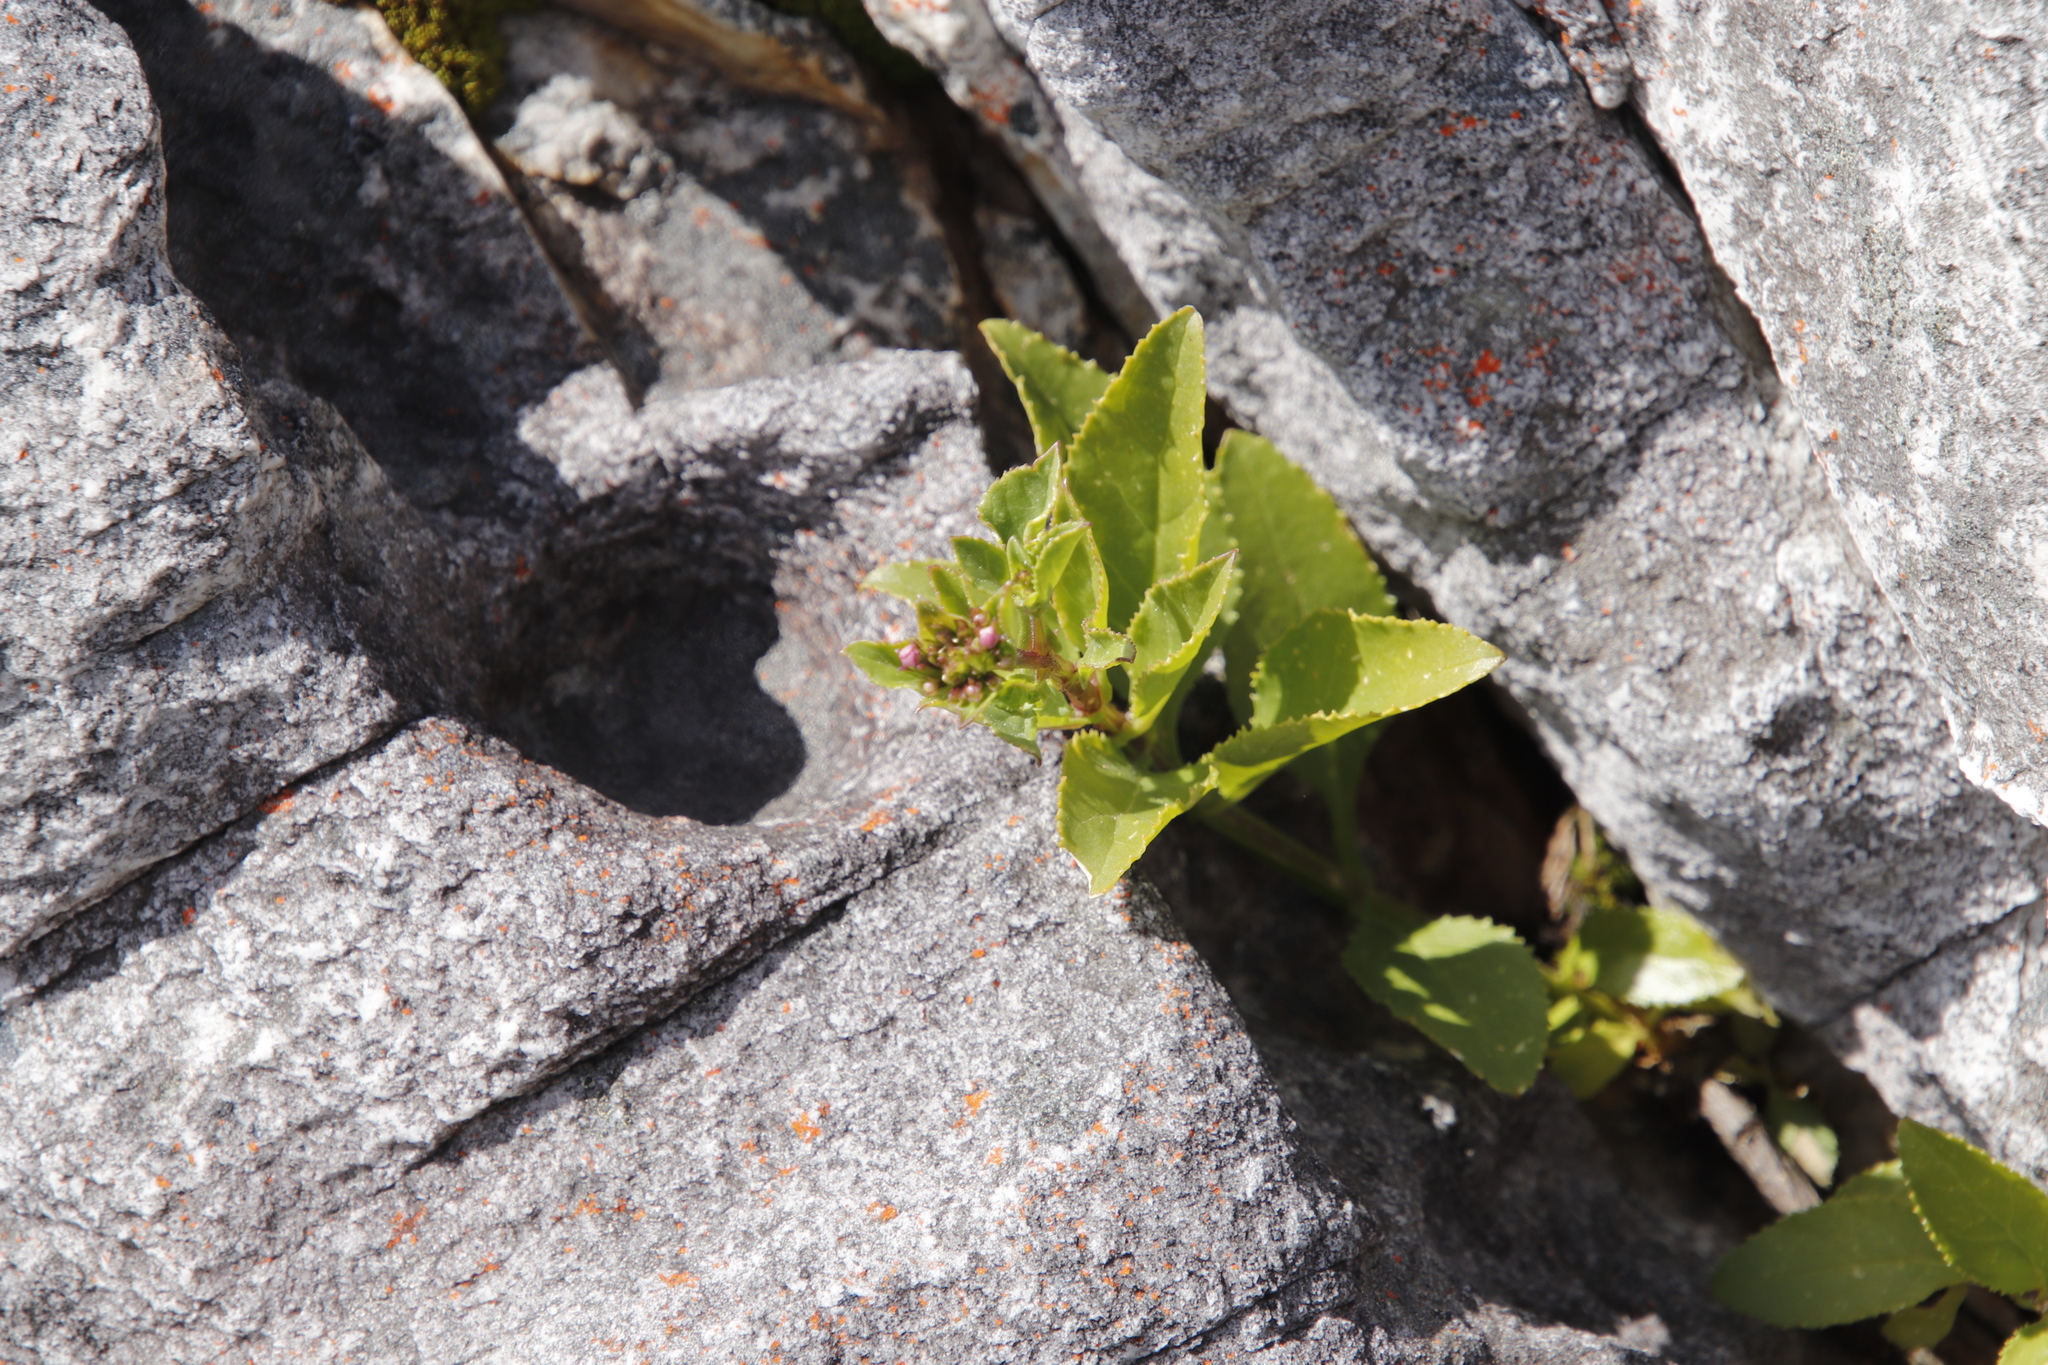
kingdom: Plantae
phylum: Tracheophyta
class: Magnoliopsida
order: Lamiales
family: Scrophulariaceae
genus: Teedia
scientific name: Teedia lucida
